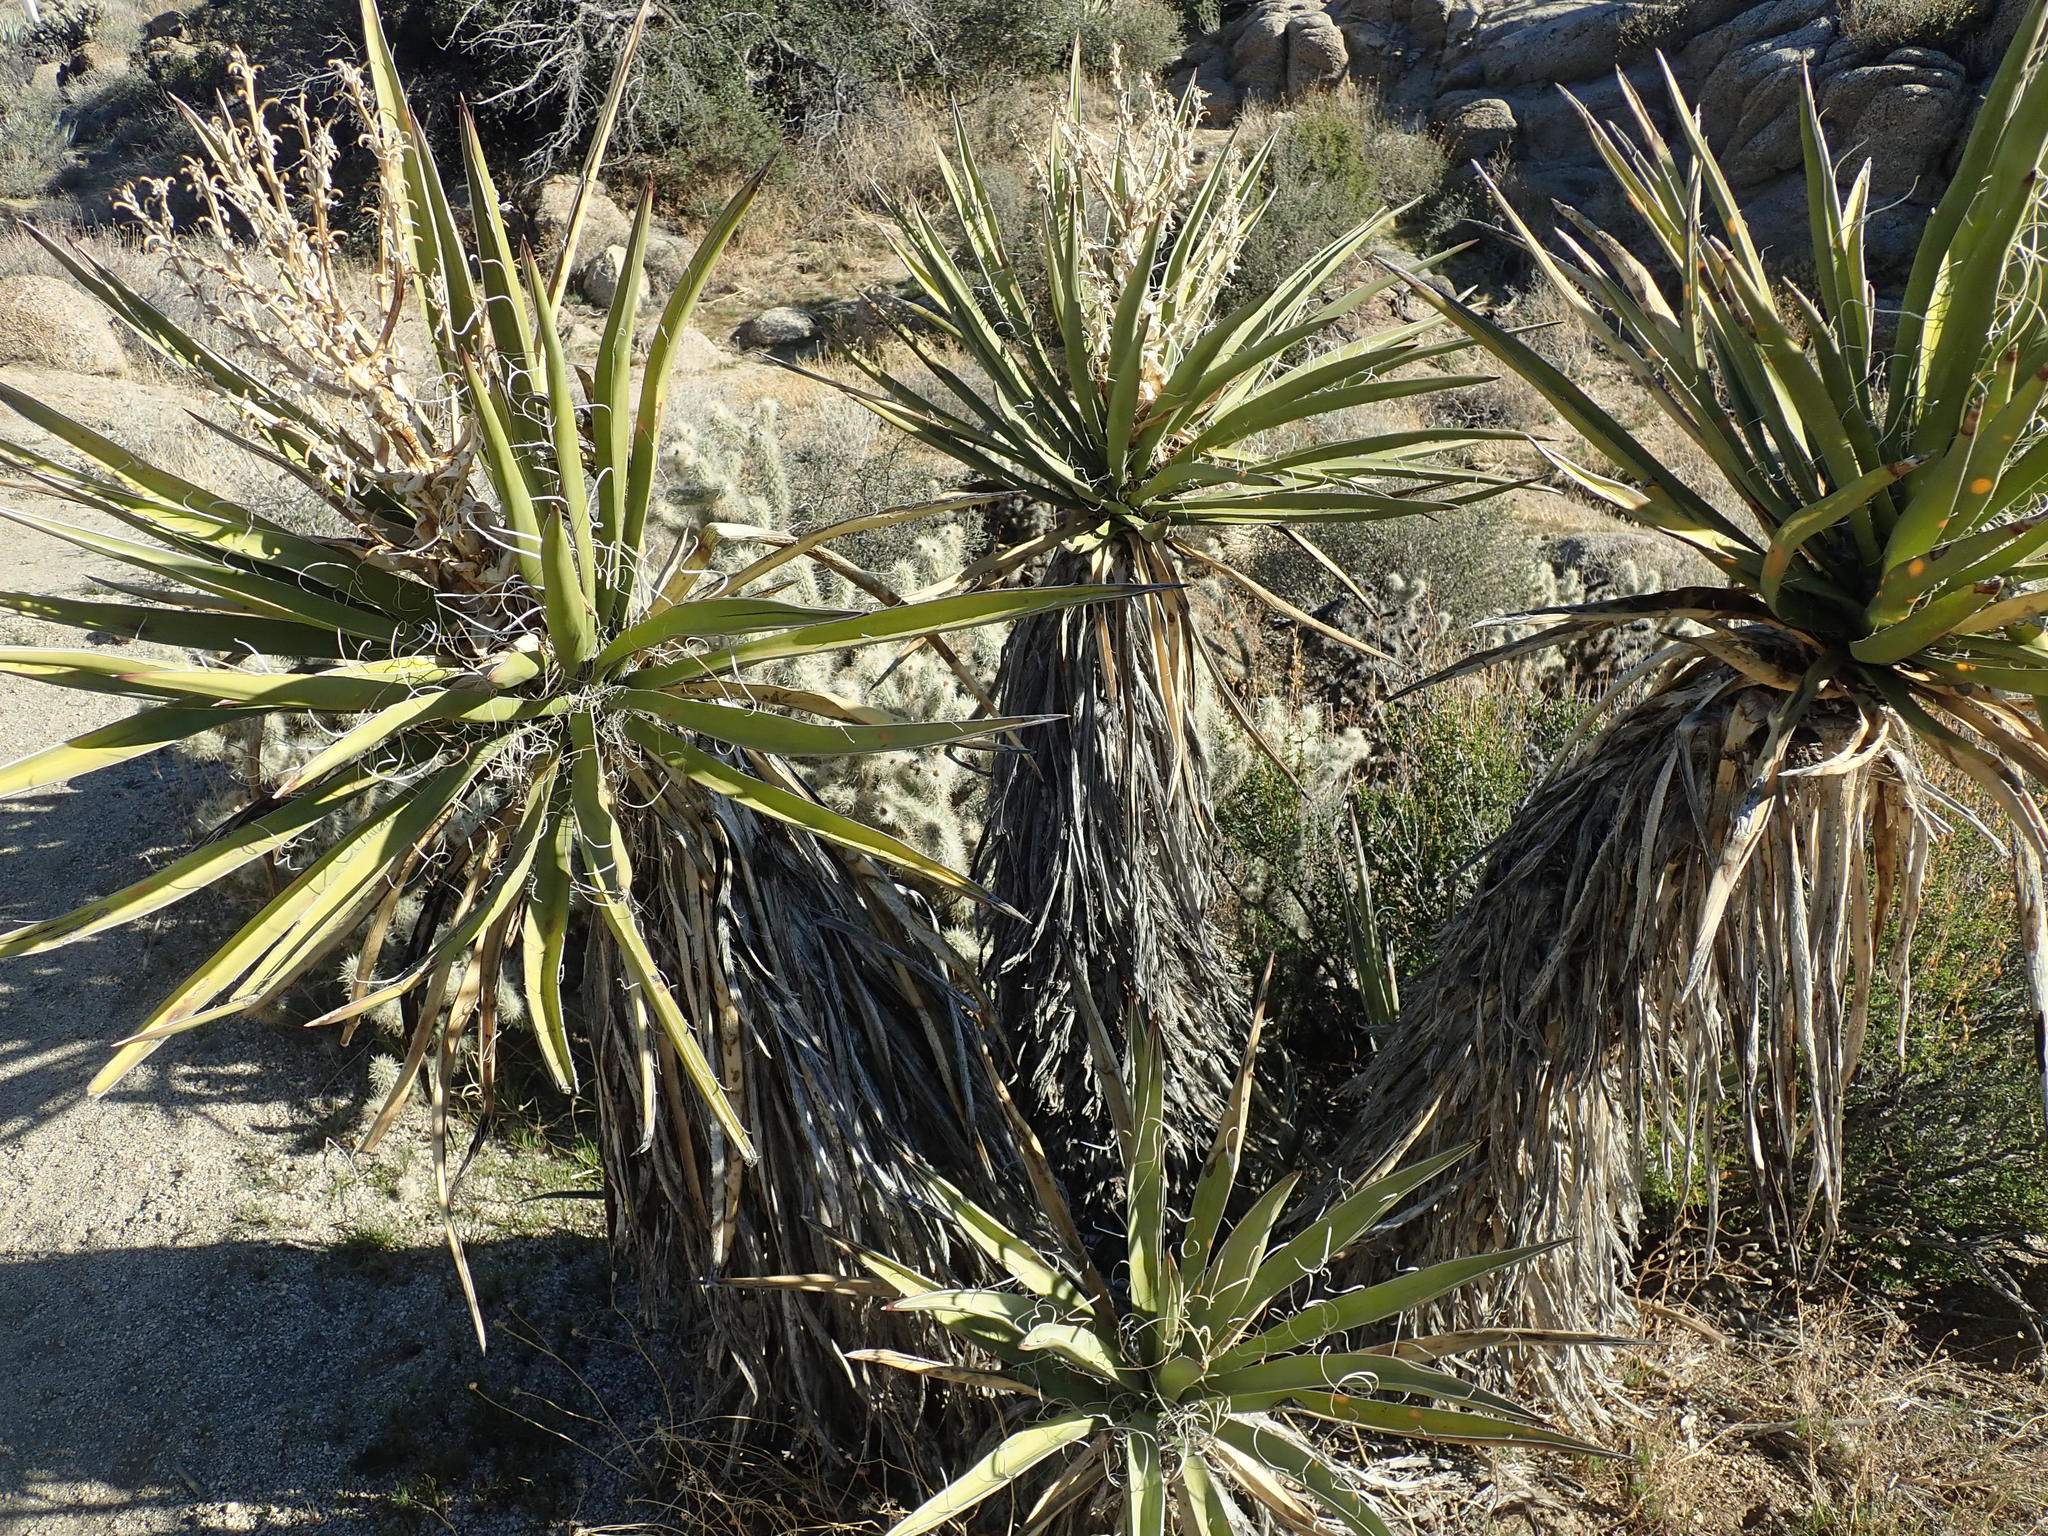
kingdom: Plantae
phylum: Tracheophyta
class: Liliopsida
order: Asparagales
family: Asparagaceae
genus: Yucca
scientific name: Yucca schidigera
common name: Mojave yucca
